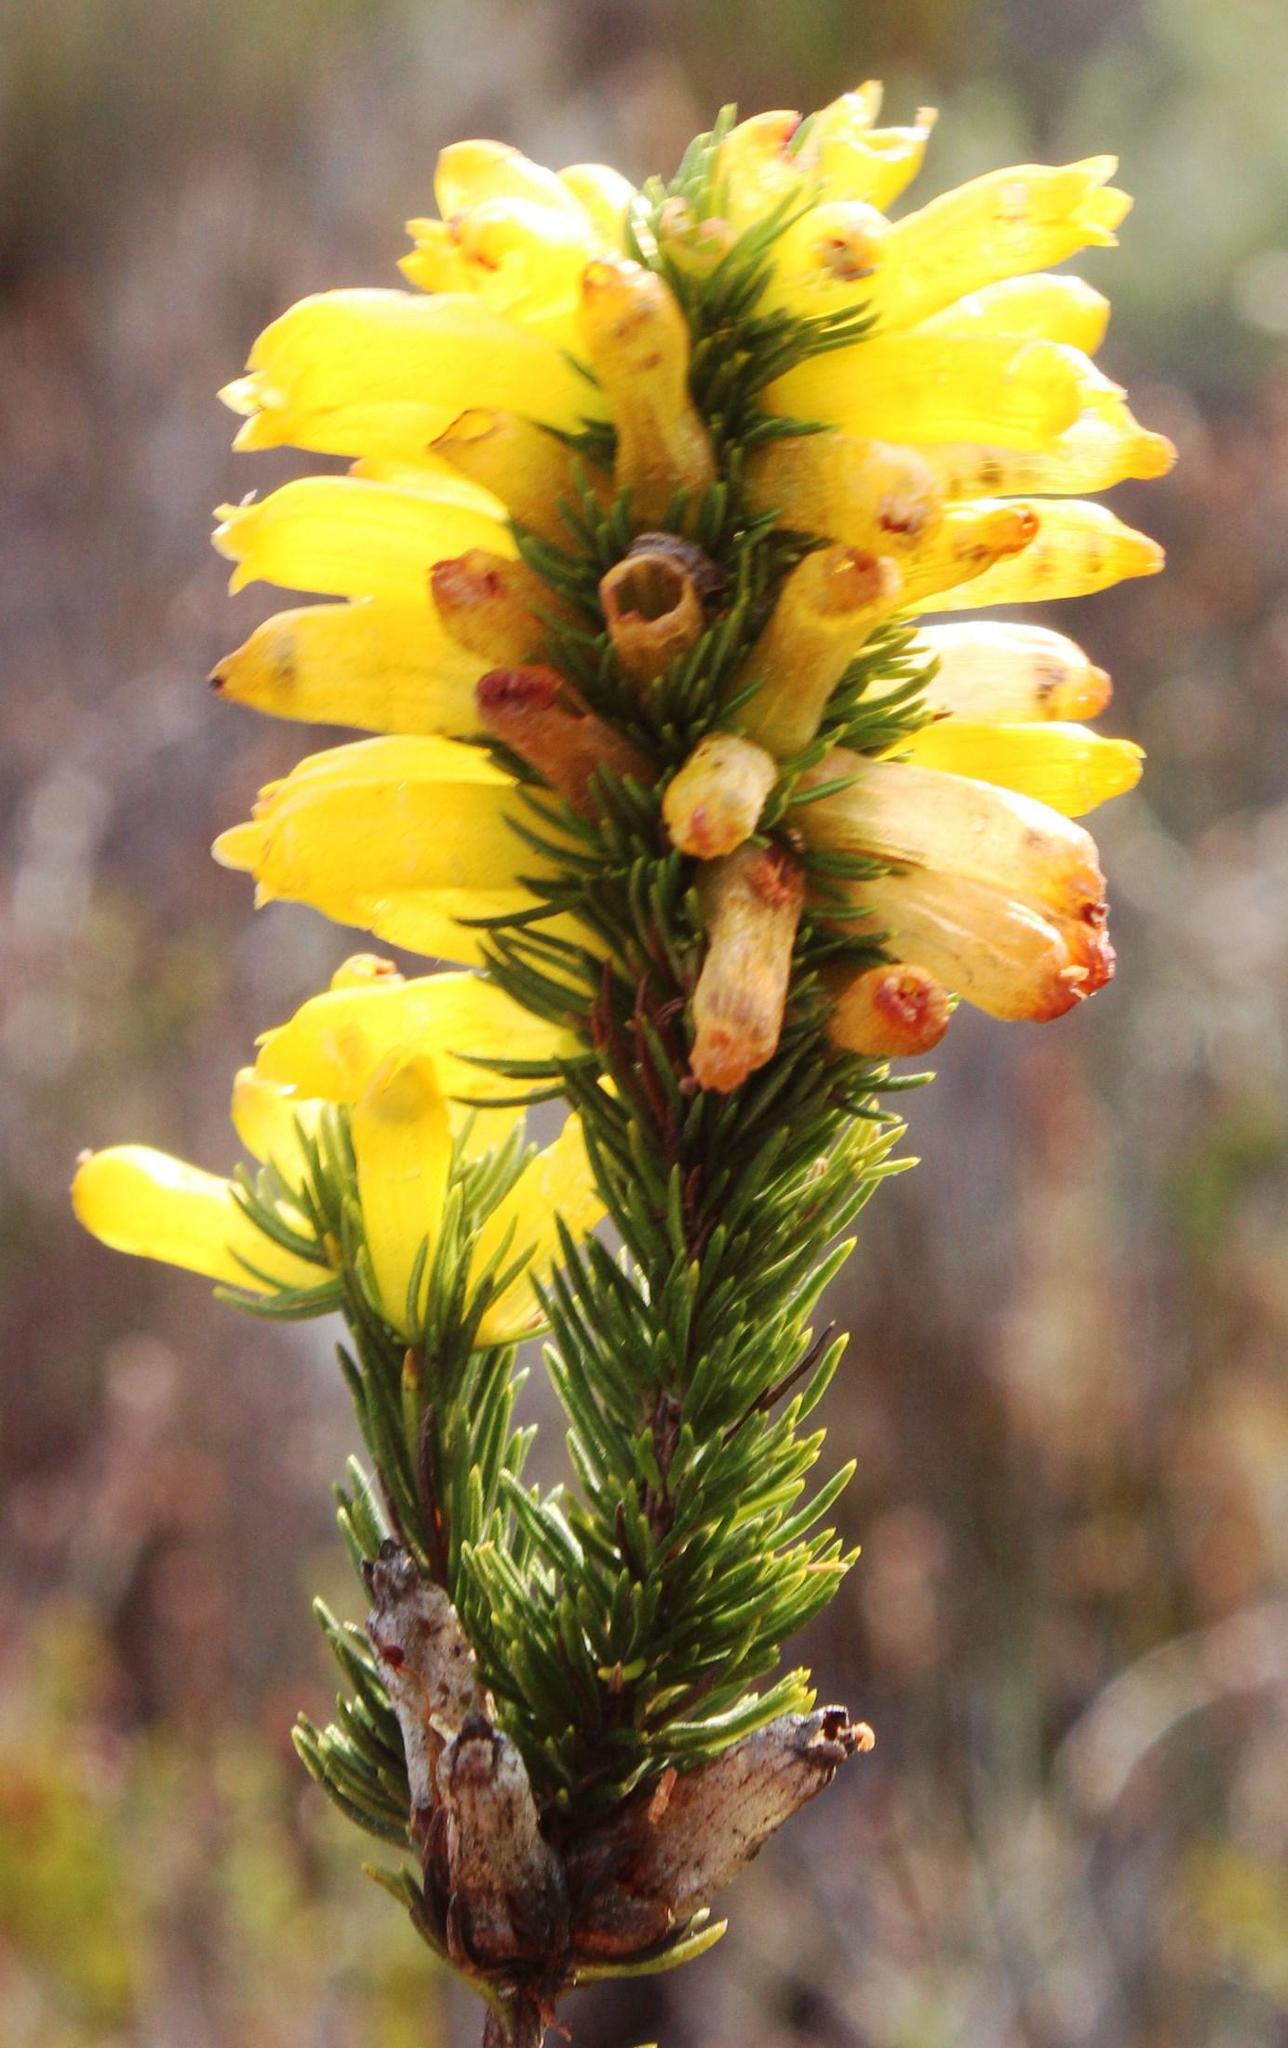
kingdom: Plantae
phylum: Tracheophyta
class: Magnoliopsida
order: Ericales
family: Ericaceae
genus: Erica
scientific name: Erica patersonia
